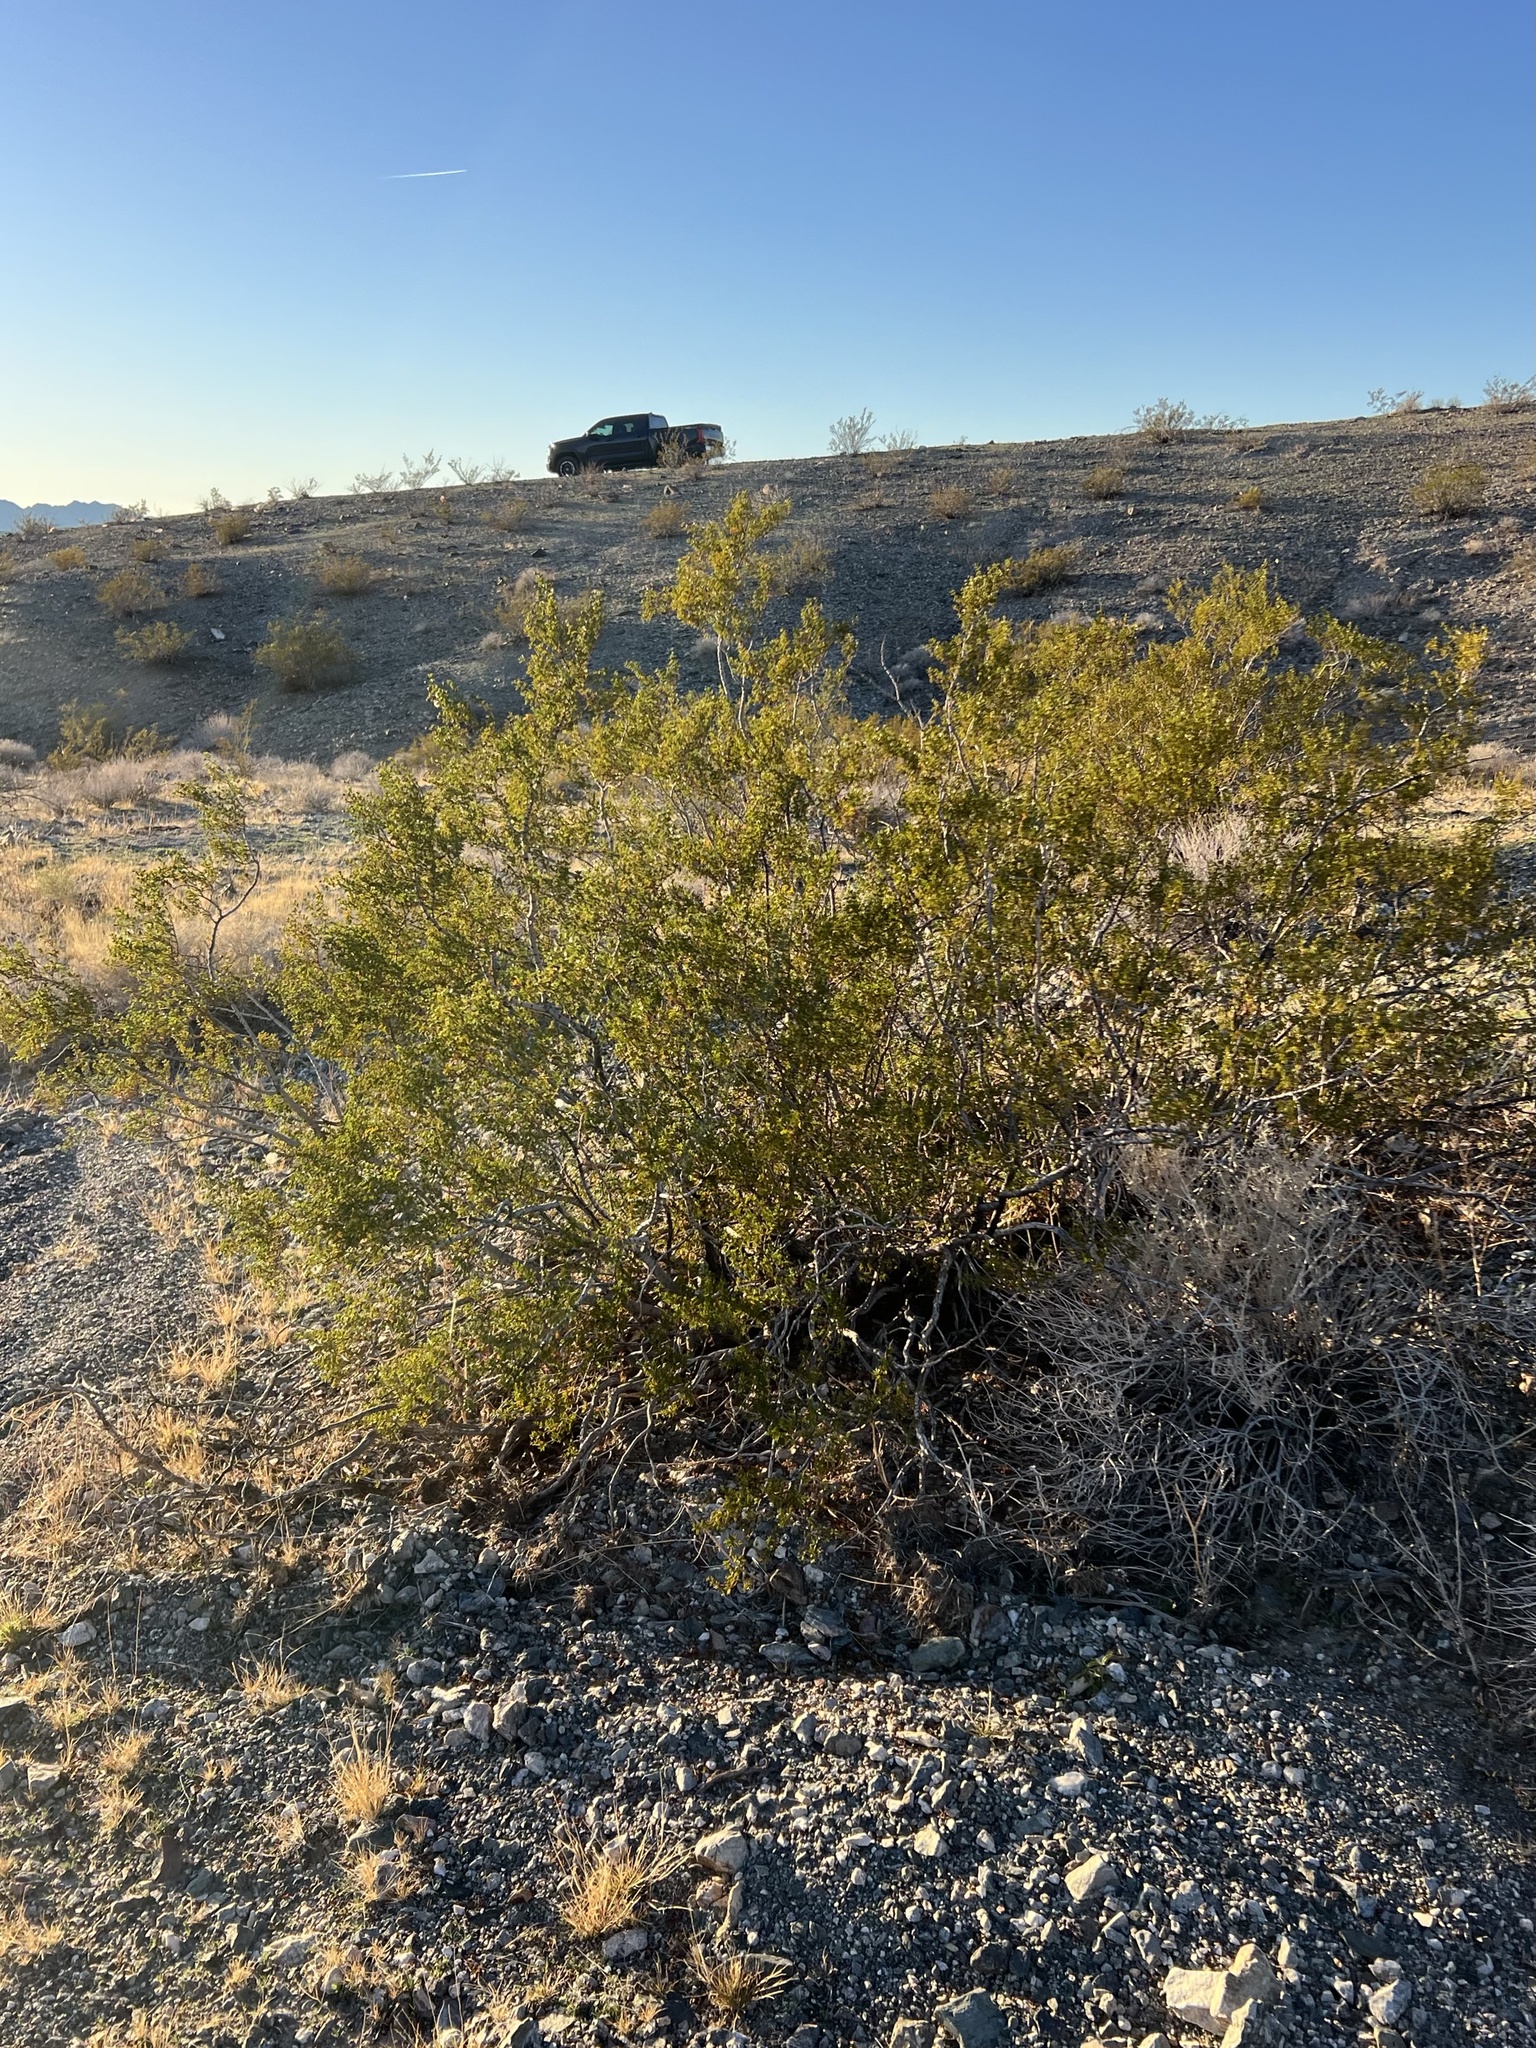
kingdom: Plantae
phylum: Tracheophyta
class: Magnoliopsida
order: Zygophyllales
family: Zygophyllaceae
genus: Larrea
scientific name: Larrea tridentata
